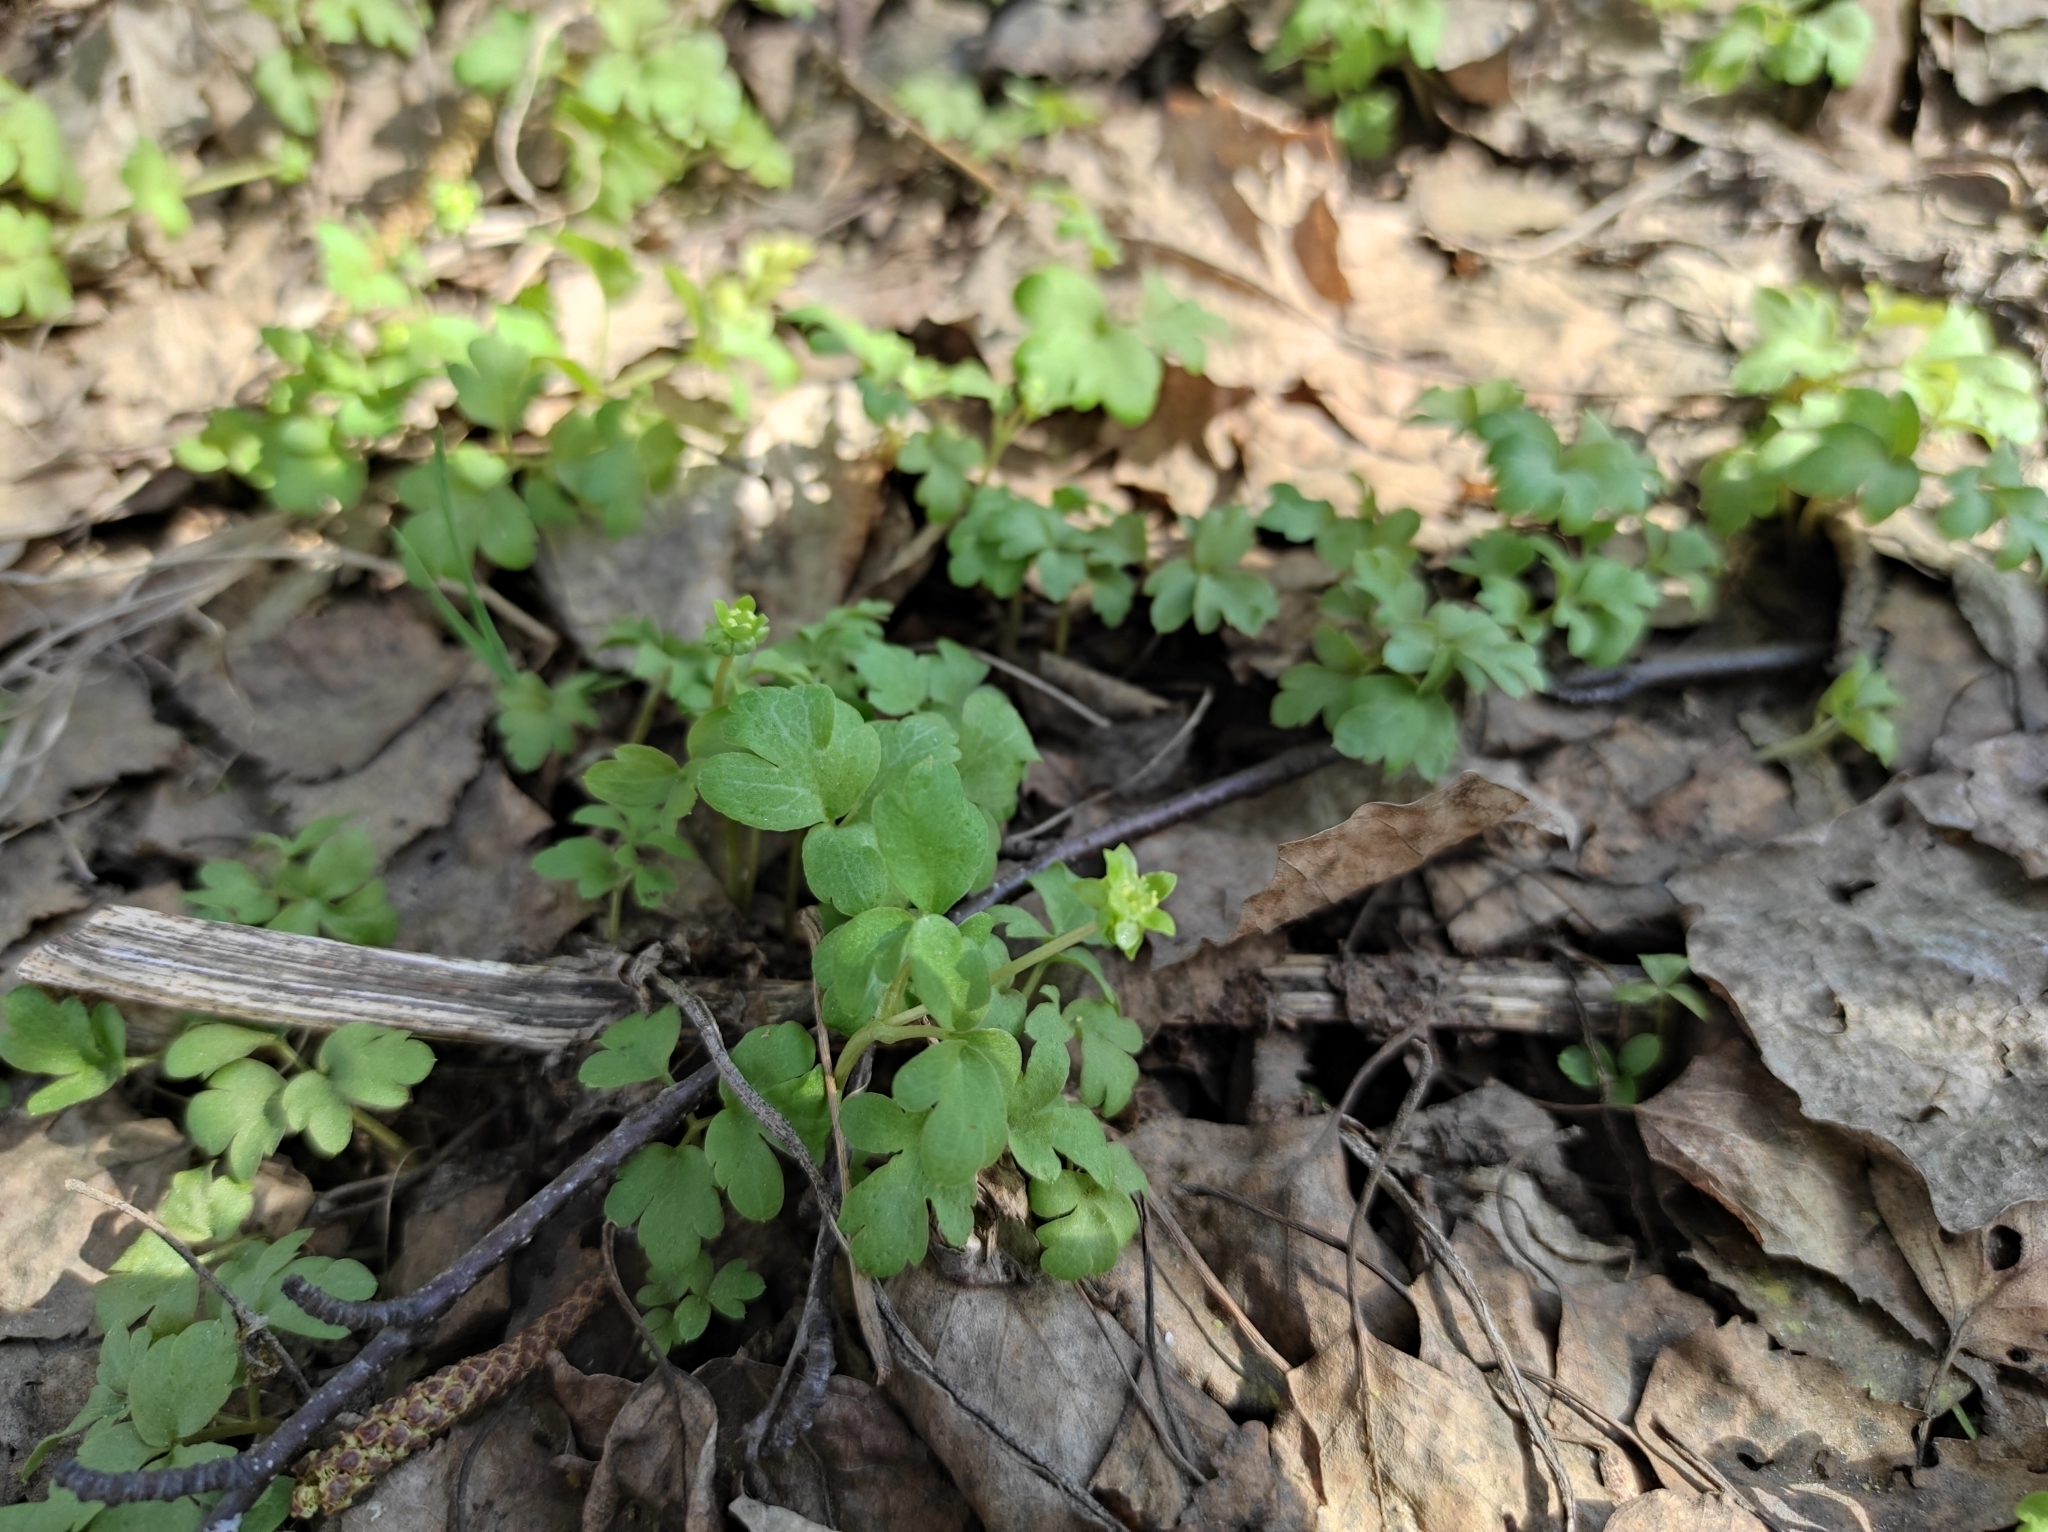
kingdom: Plantae
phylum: Tracheophyta
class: Magnoliopsida
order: Dipsacales
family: Viburnaceae
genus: Adoxa
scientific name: Adoxa moschatellina
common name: Moschatel
